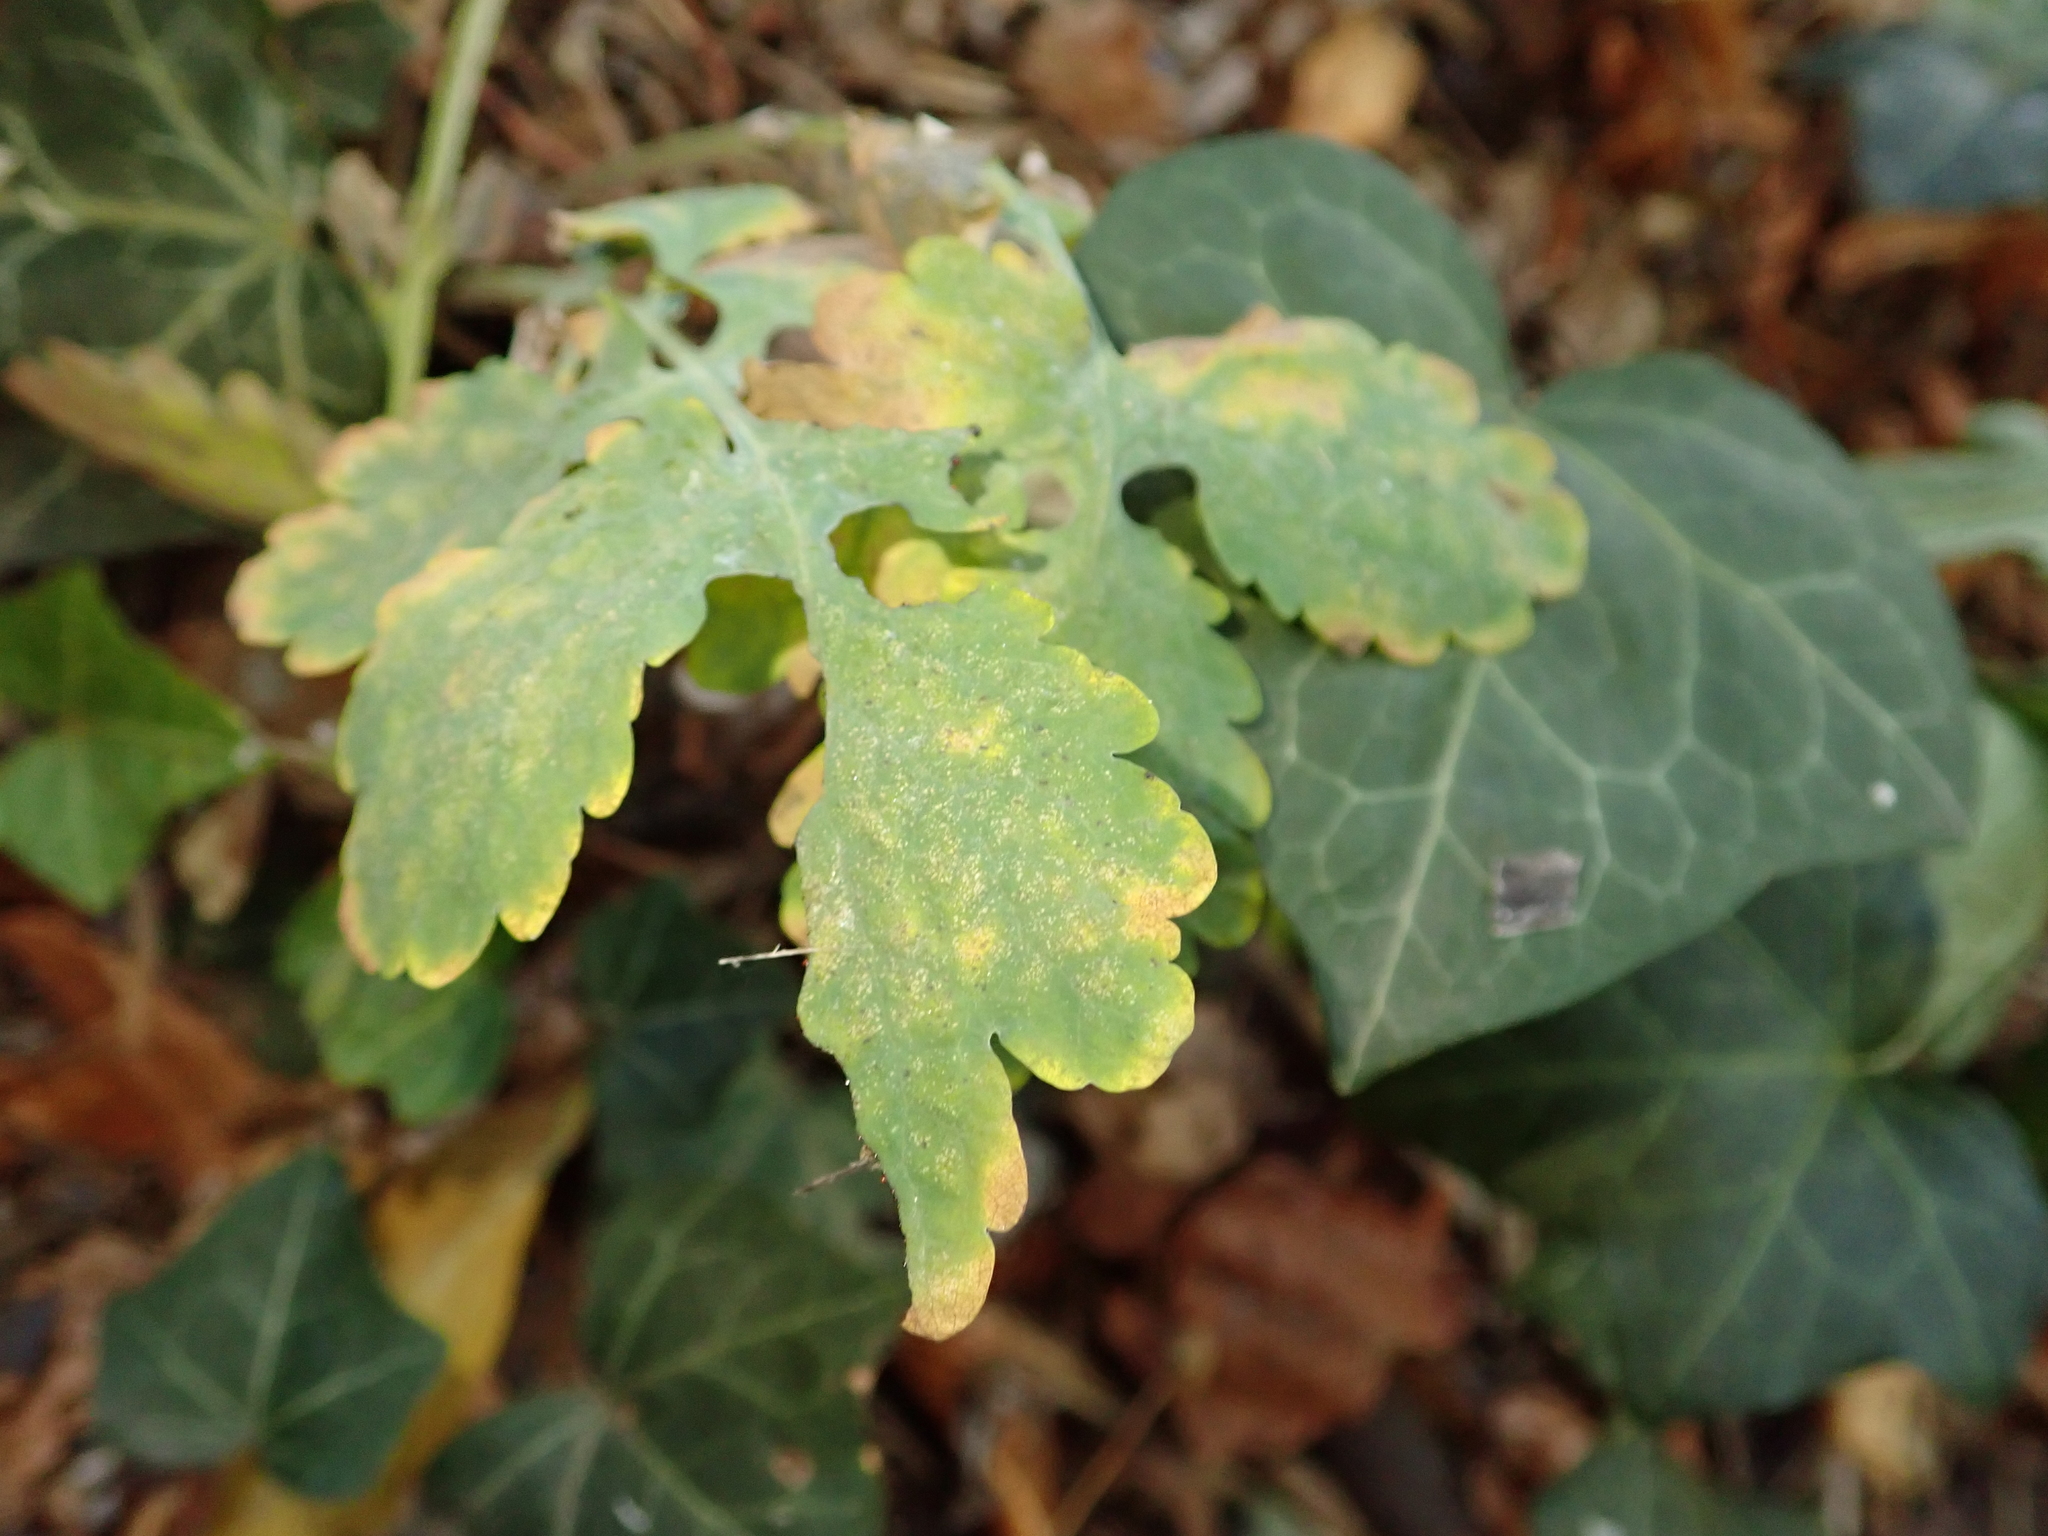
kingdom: Plantae
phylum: Tracheophyta
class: Magnoliopsida
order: Ranunculales
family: Papaveraceae
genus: Chelidonium
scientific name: Chelidonium majus
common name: Greater celandine
